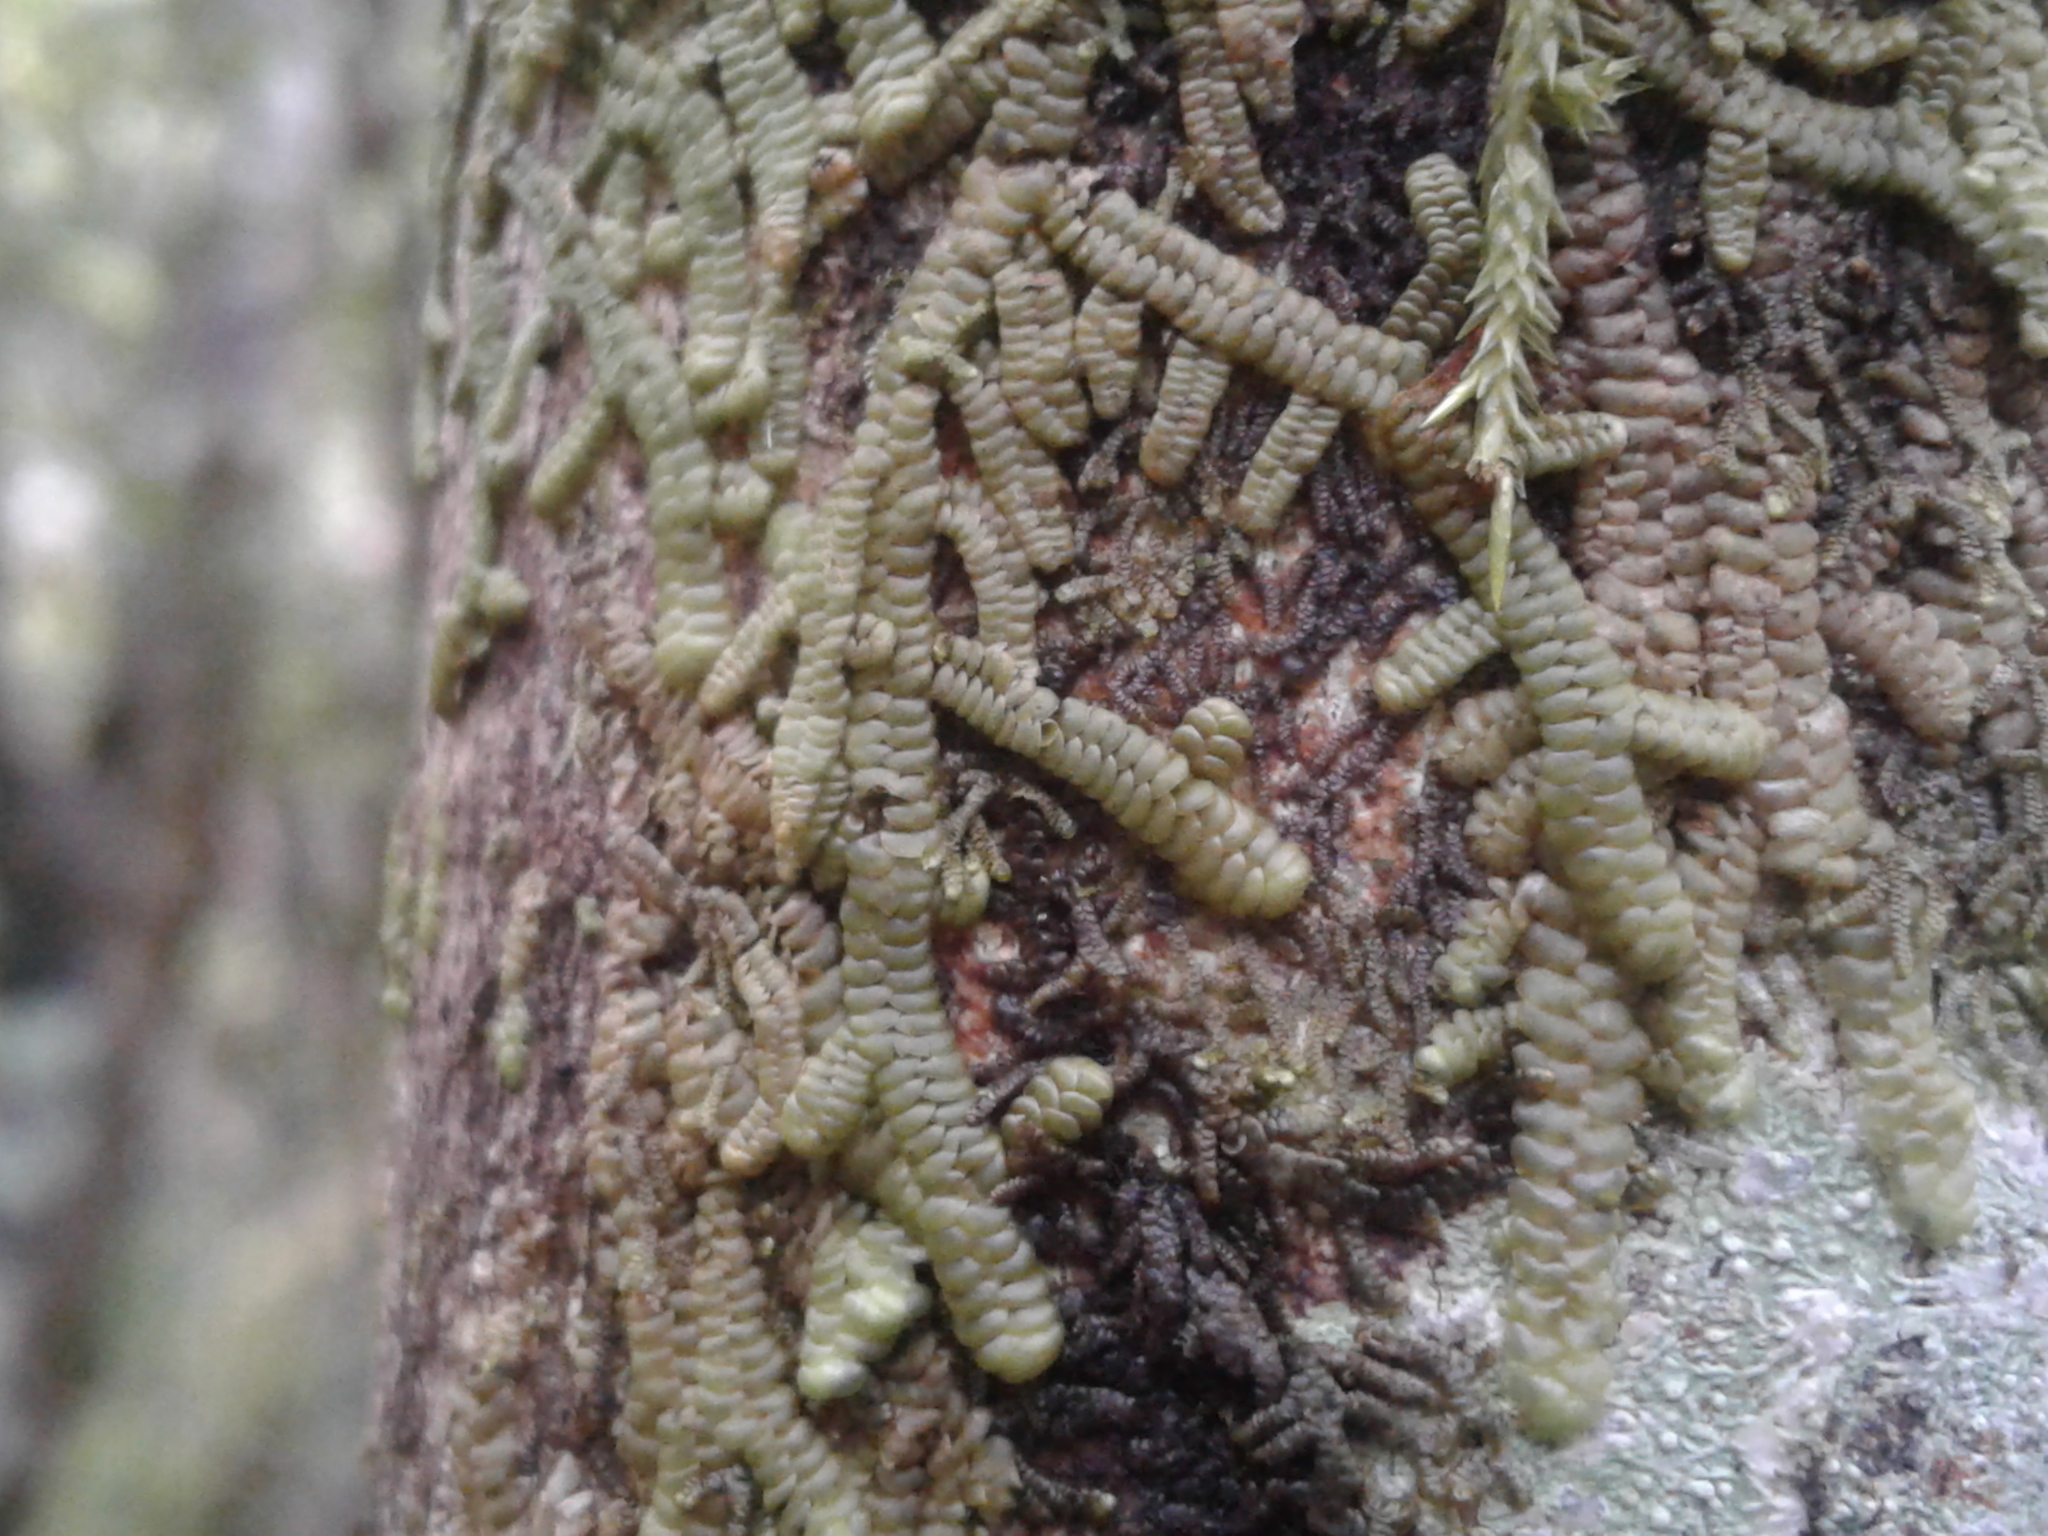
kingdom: Plantae
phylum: Marchantiophyta
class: Jungermanniopsida
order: Porellales
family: Frullaniaceae
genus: Frullania
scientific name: Frullania
